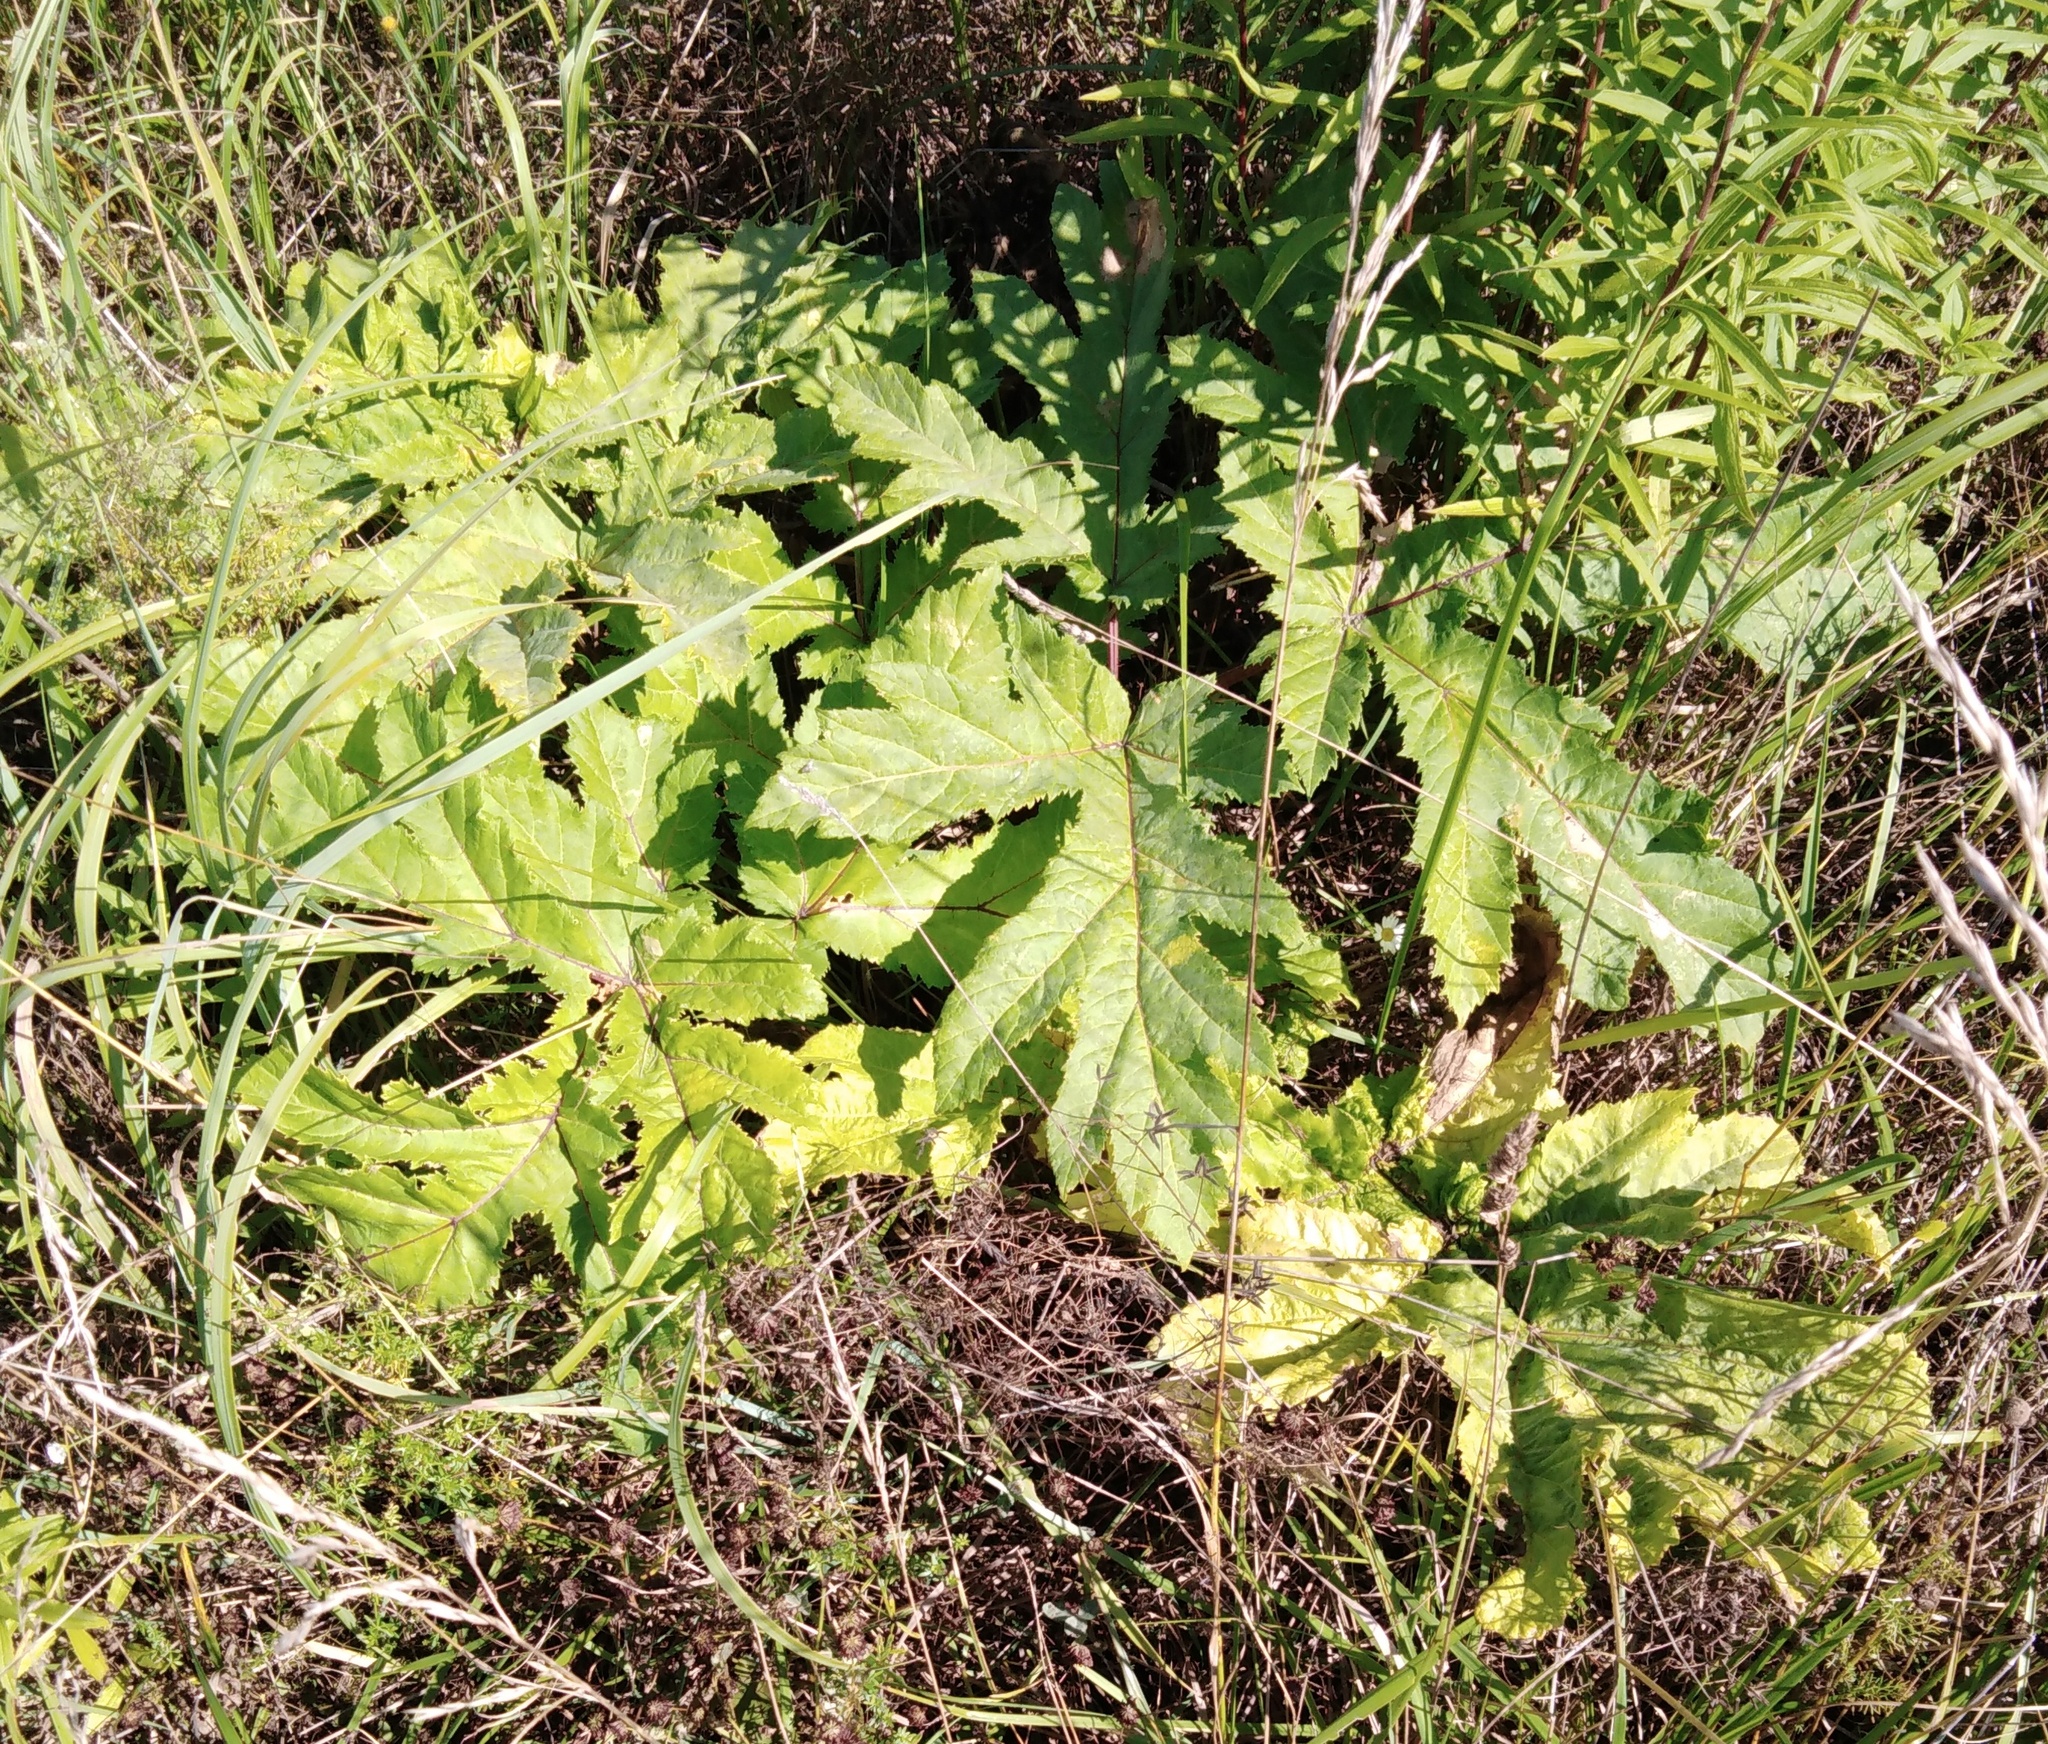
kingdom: Plantae
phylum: Tracheophyta
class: Magnoliopsida
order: Apiales
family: Apiaceae
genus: Heracleum
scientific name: Heracleum sosnowskyi
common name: Sosnowsky's hogweed
